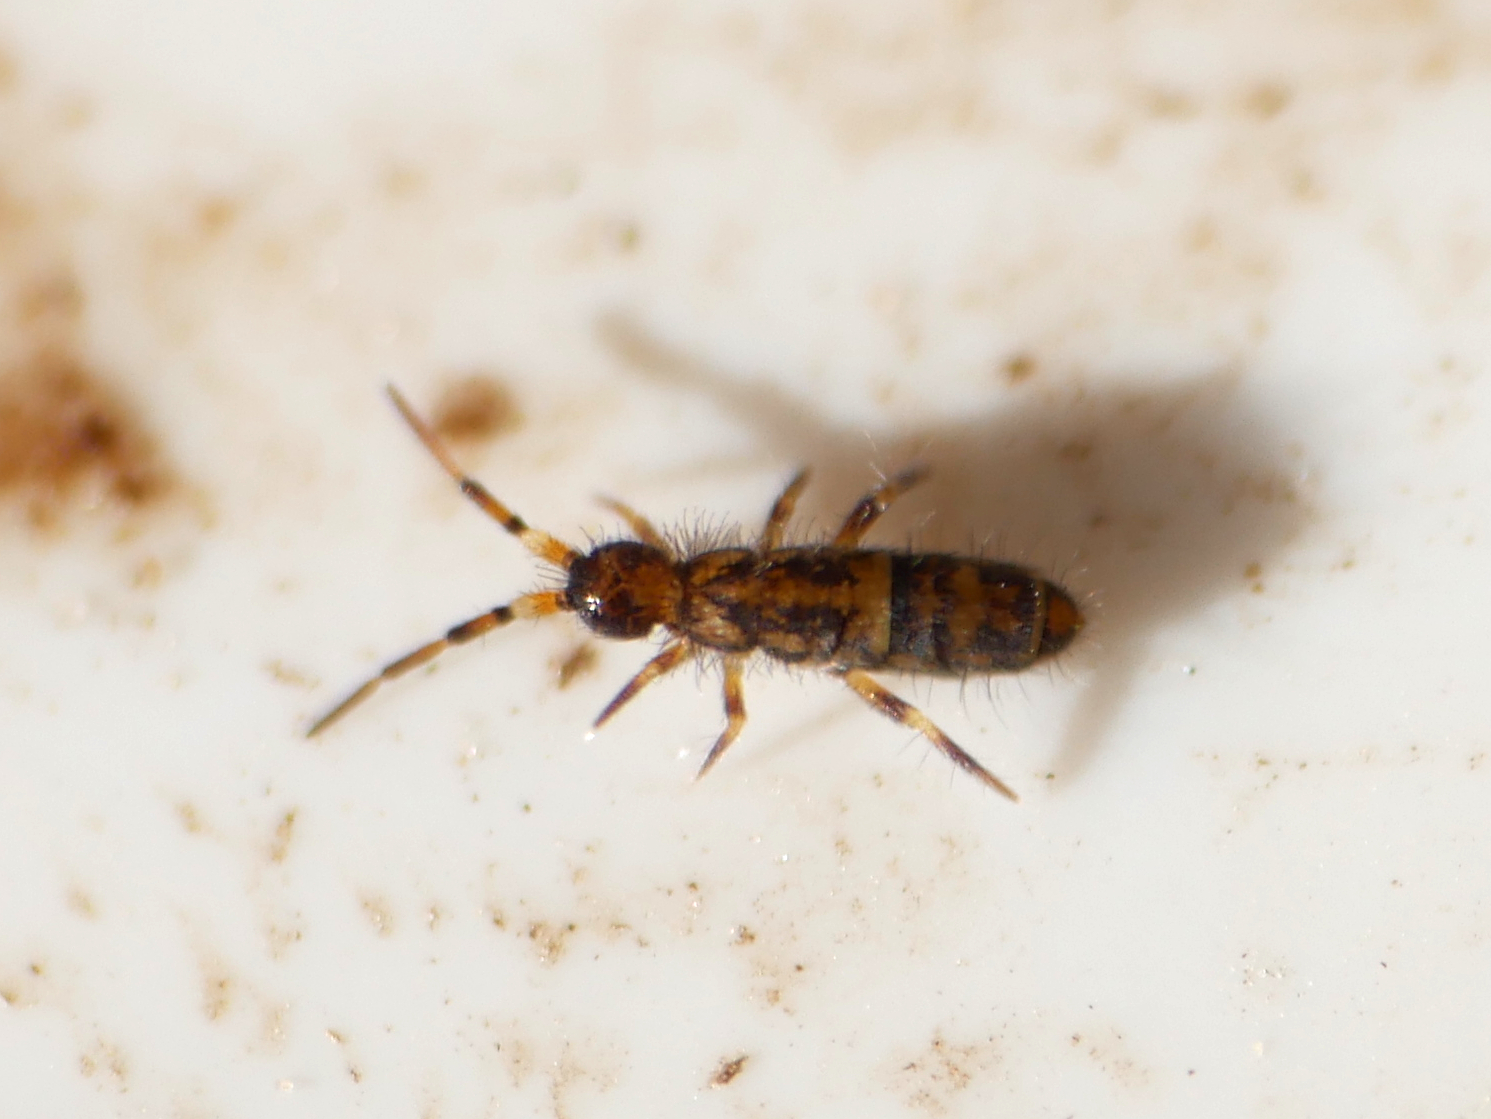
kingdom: Animalia
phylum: Arthropoda
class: Collembola
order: Entomobryomorpha
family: Orchesellidae
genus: Orchesella
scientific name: Orchesella cincta
